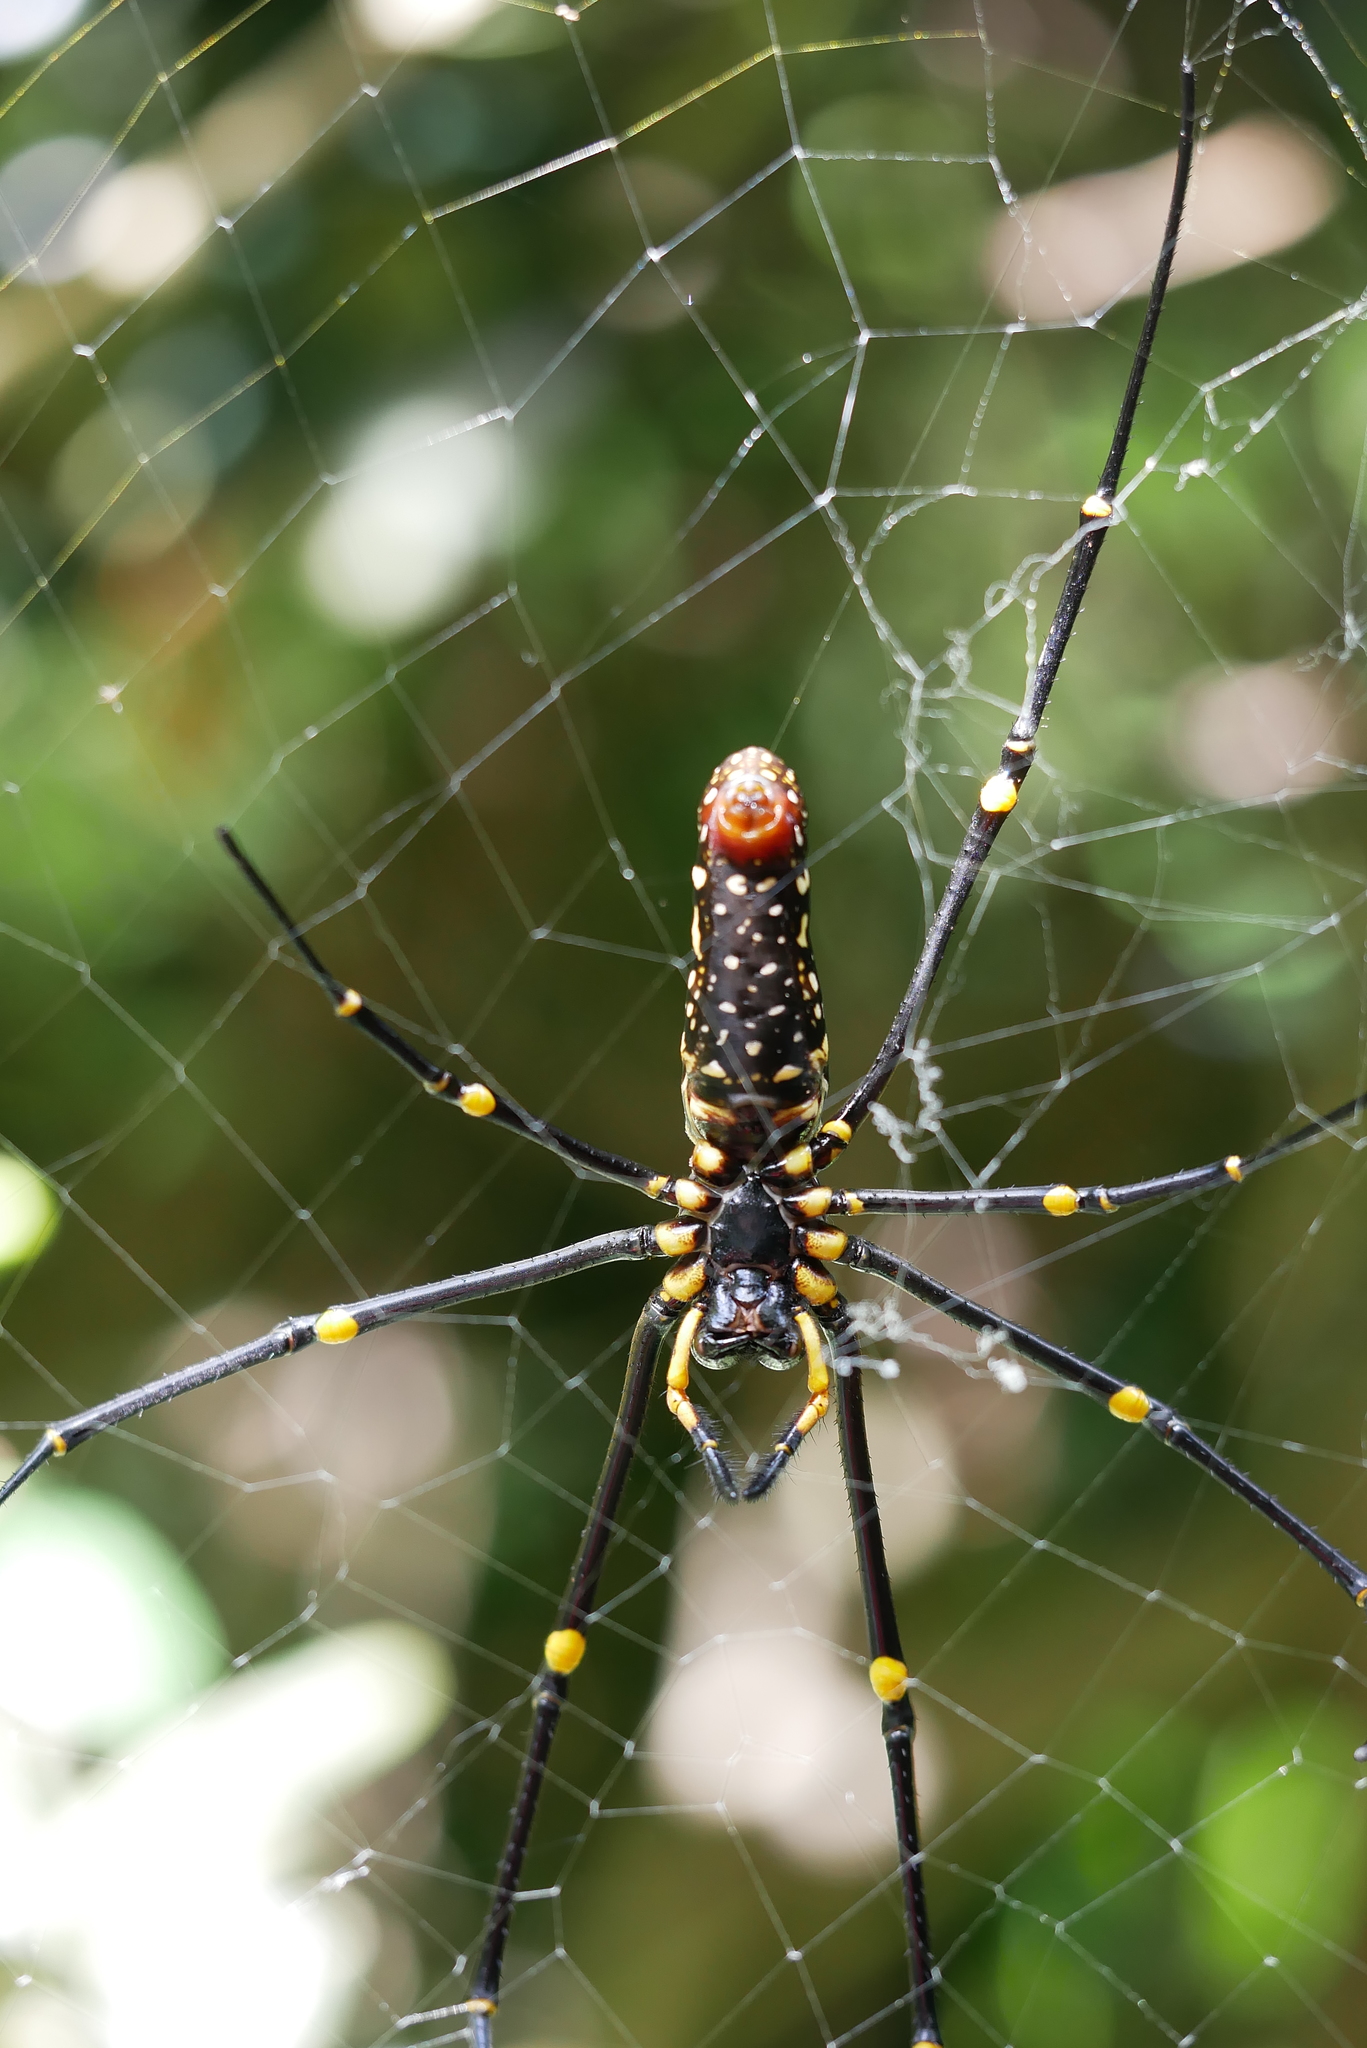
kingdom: Animalia
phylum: Arthropoda
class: Arachnida
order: Araneae
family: Araneidae
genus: Nephila
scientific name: Nephila pilipes
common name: Giant golden orb weaver
